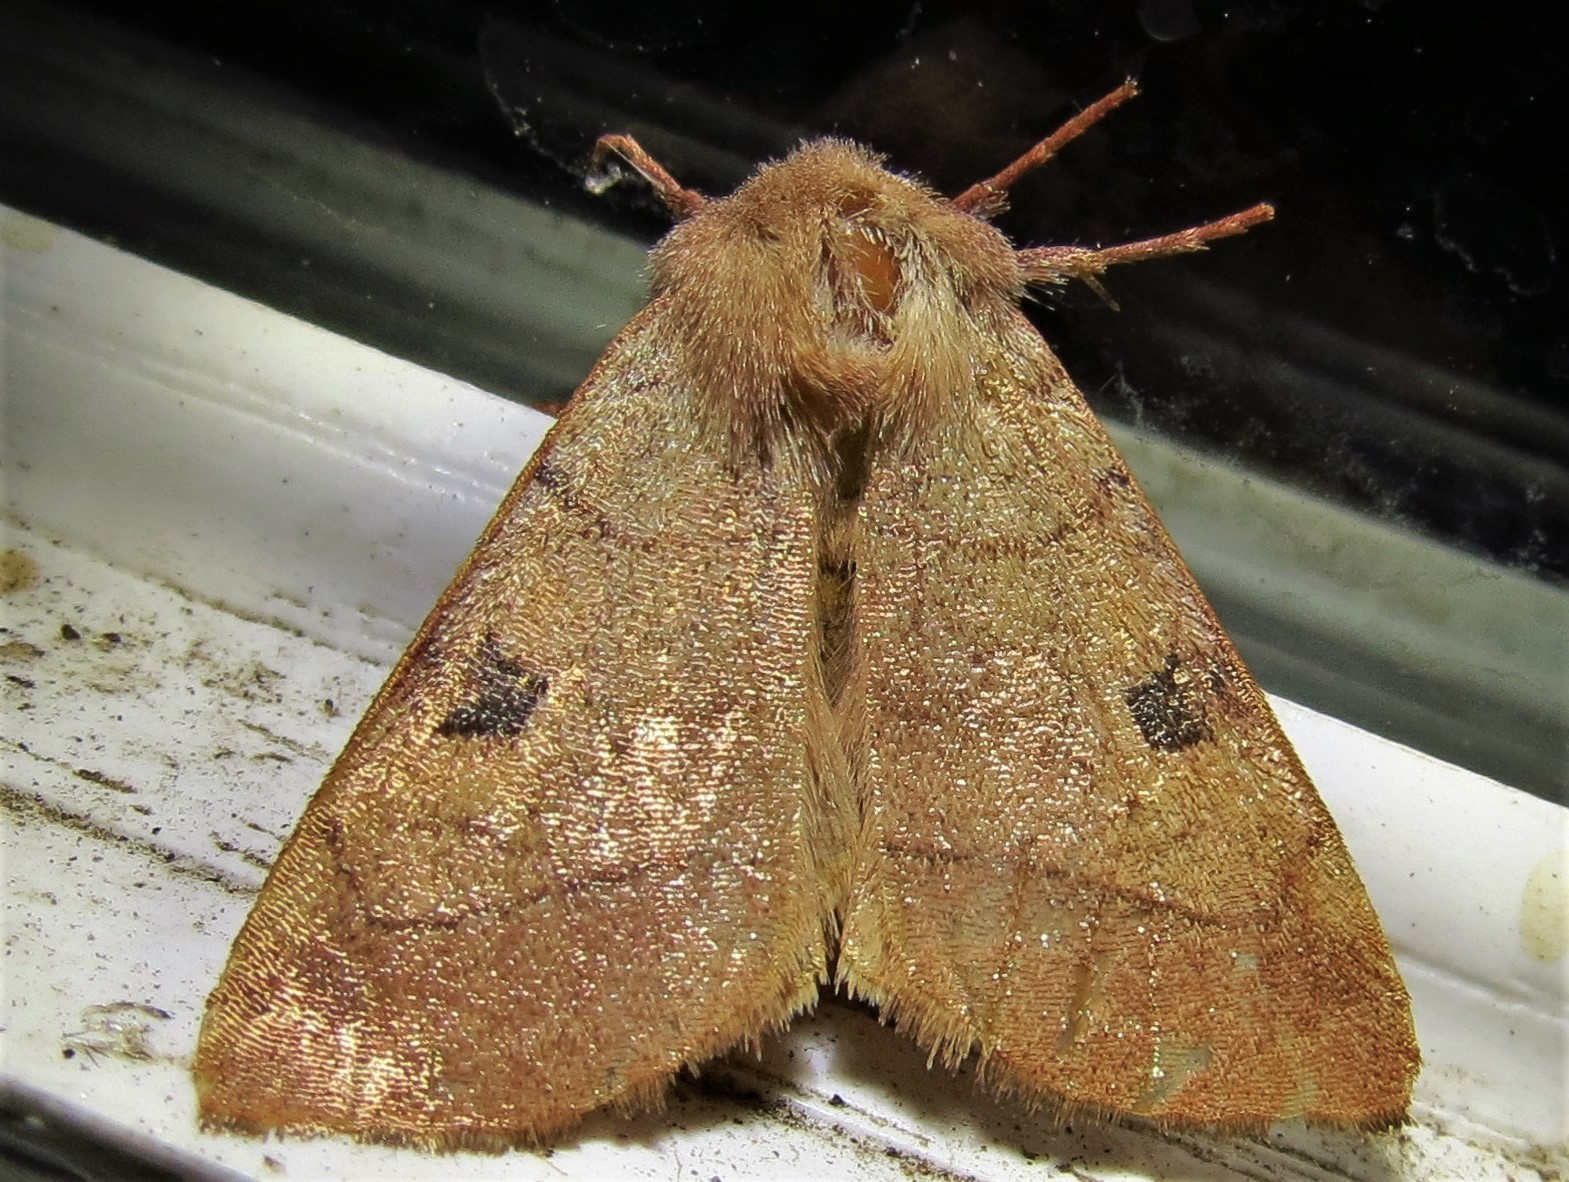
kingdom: Animalia
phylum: Arthropoda
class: Insecta
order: Lepidoptera
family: Noctuidae
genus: Choephora
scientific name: Choephora fungorum
